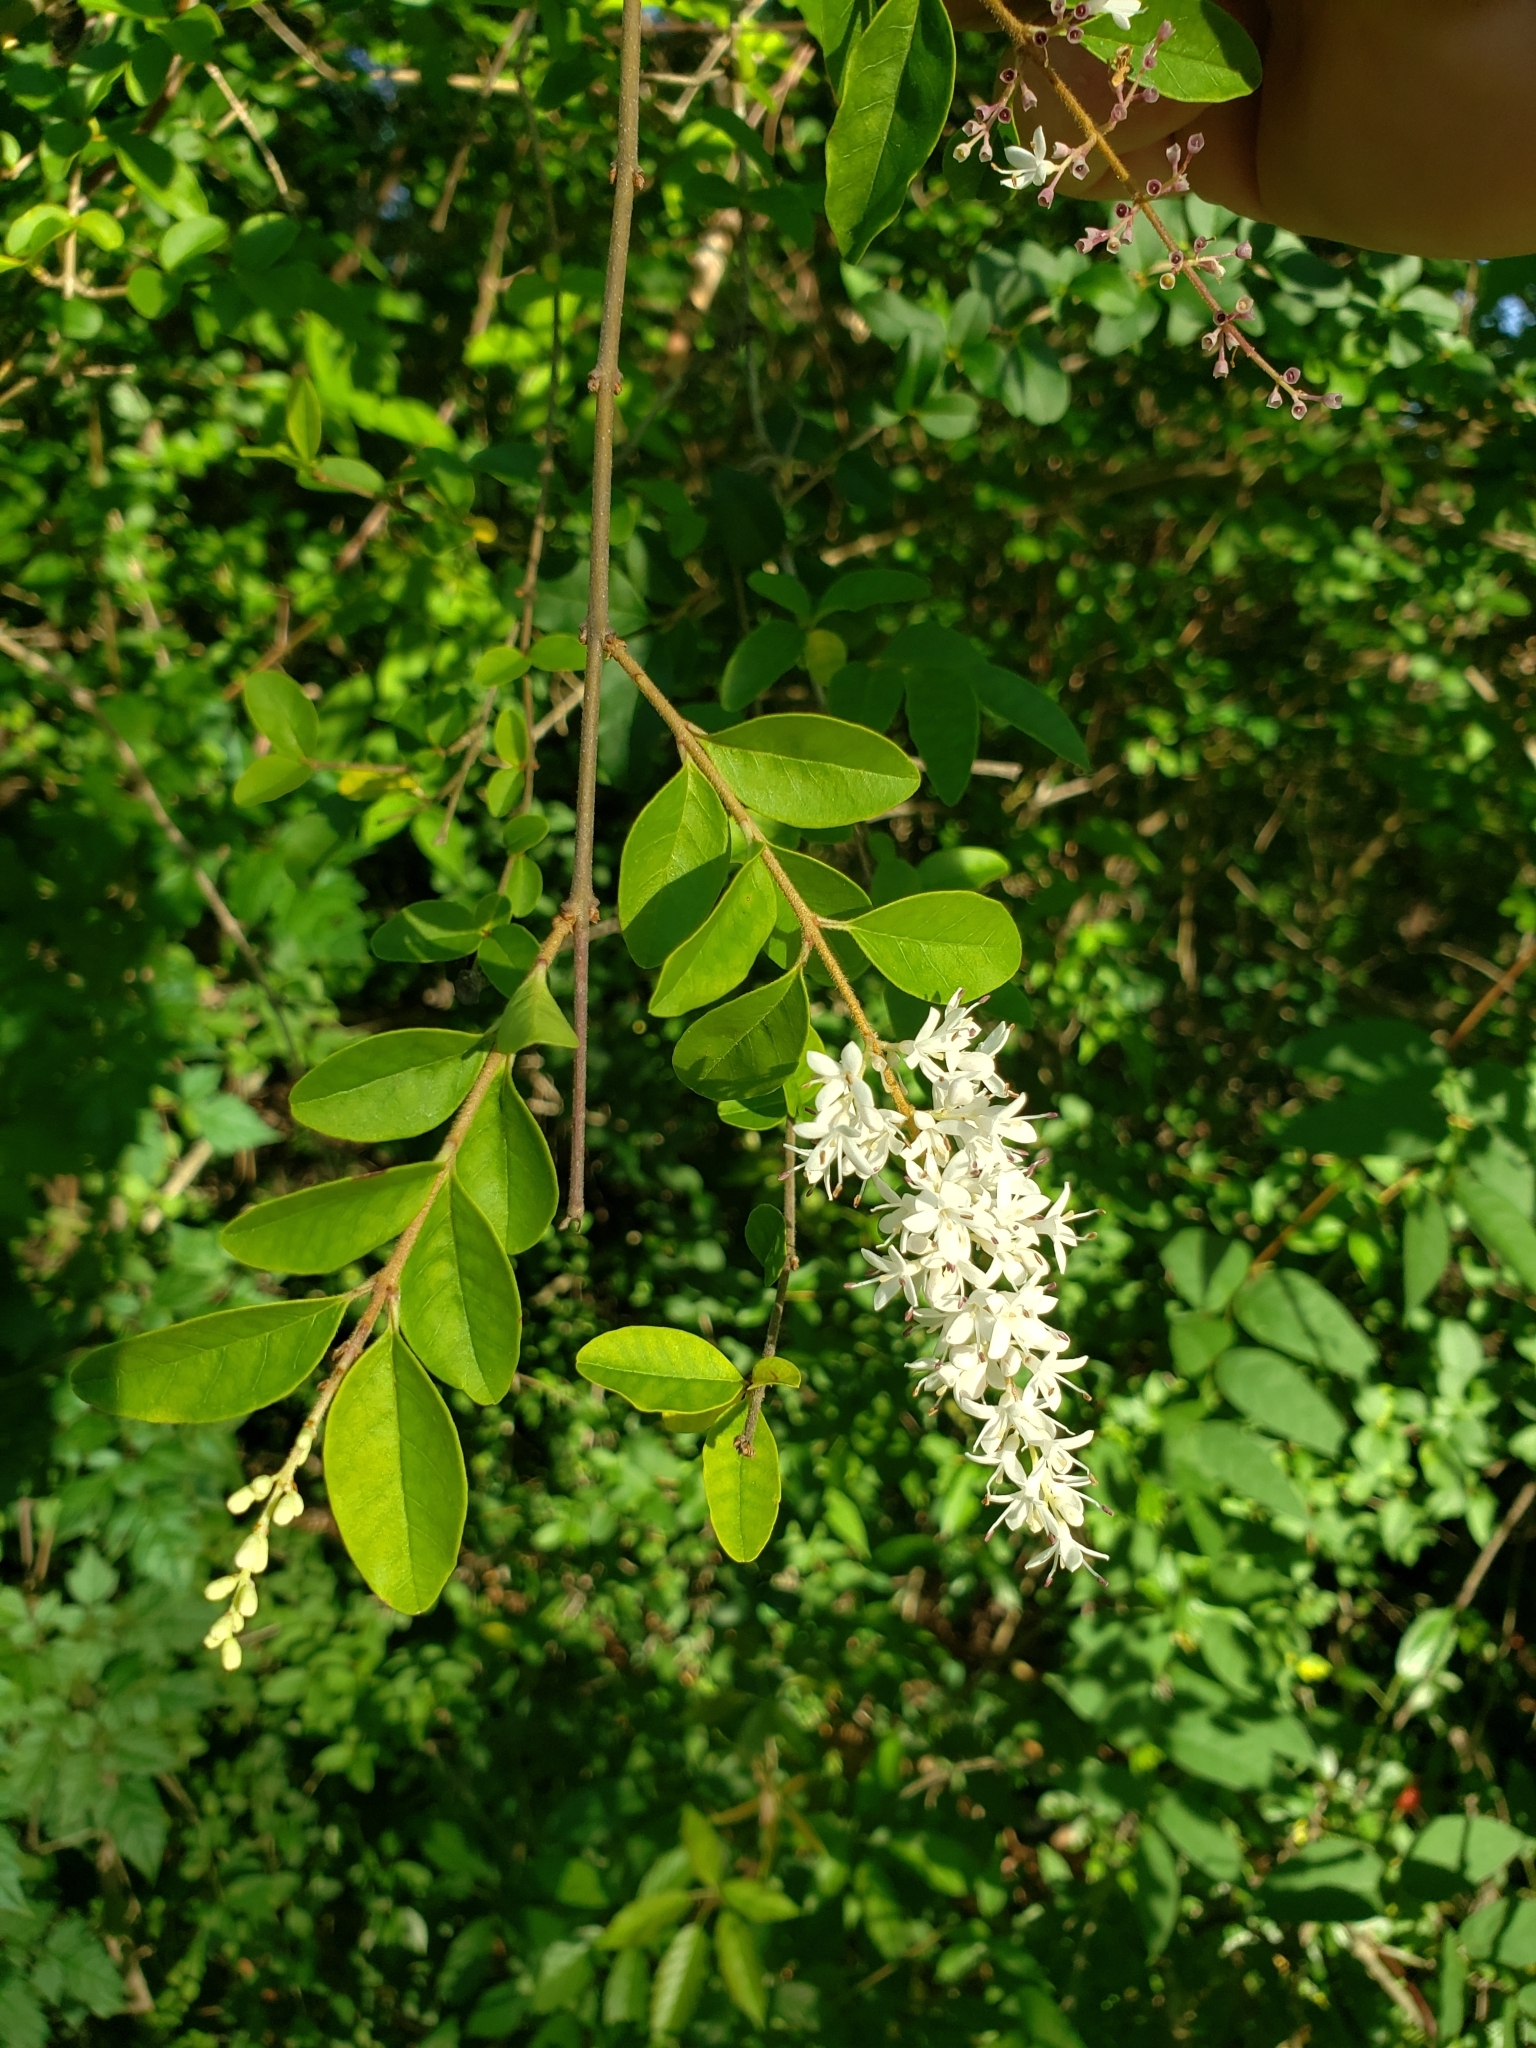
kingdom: Plantae
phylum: Tracheophyta
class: Magnoliopsida
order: Lamiales
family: Oleaceae
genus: Ligustrum
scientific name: Ligustrum sinense
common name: Chinese privet
